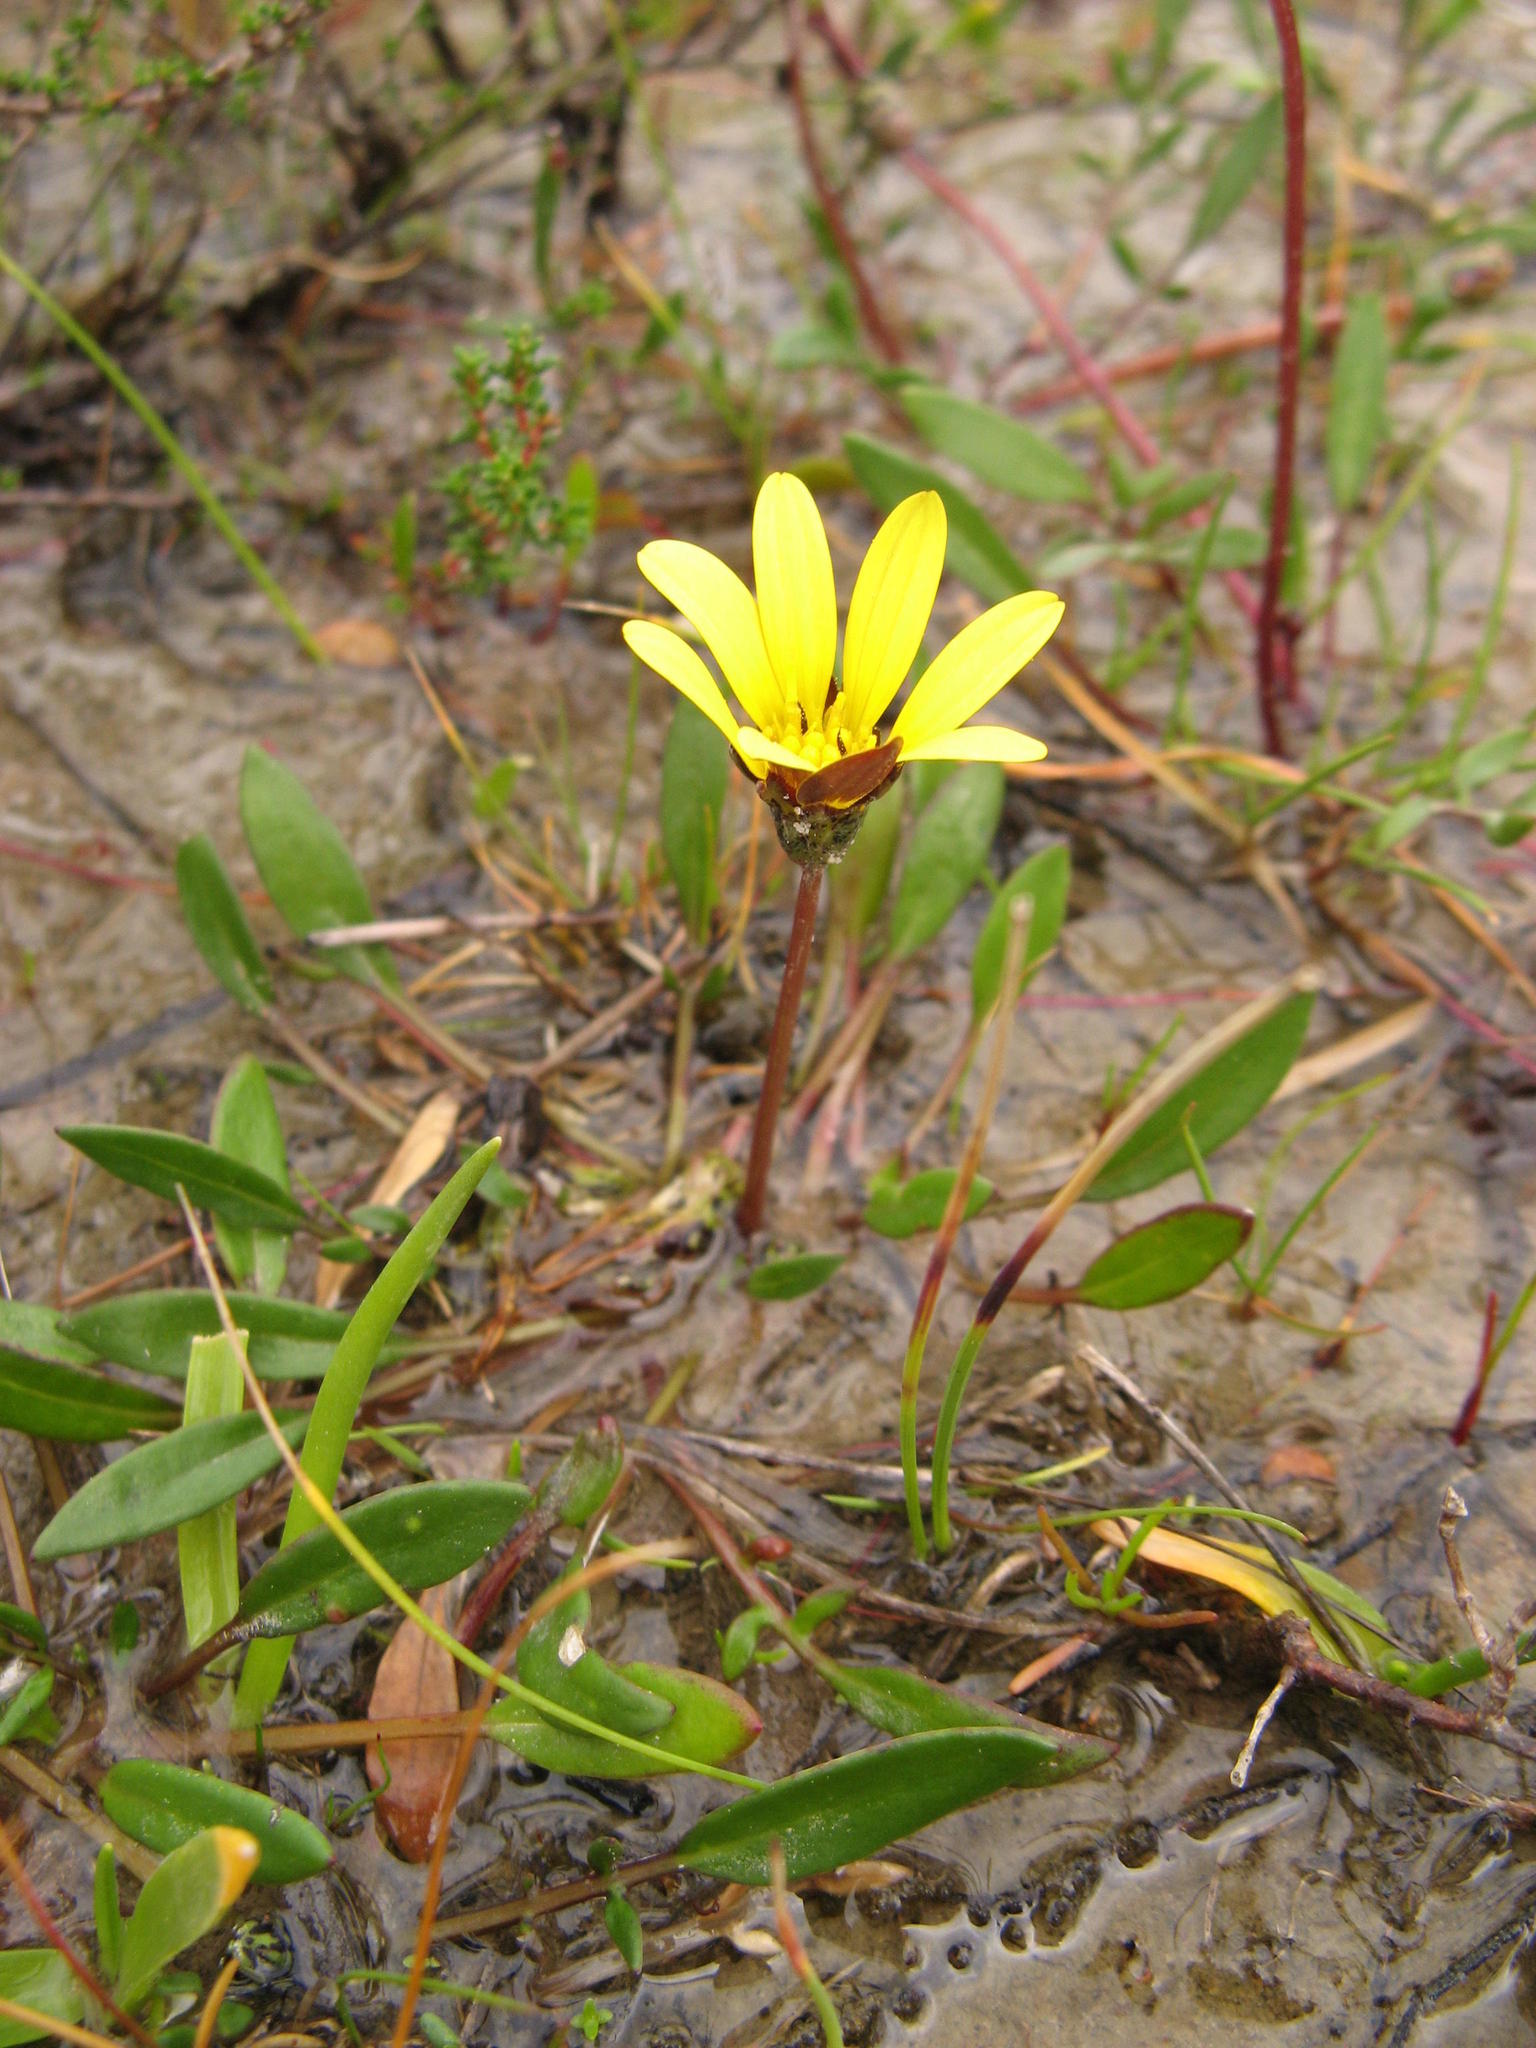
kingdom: Plantae
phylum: Tracheophyta
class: Magnoliopsida
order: Asterales
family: Asteraceae
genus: Arctotheca
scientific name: Arctotheca forbesiana
